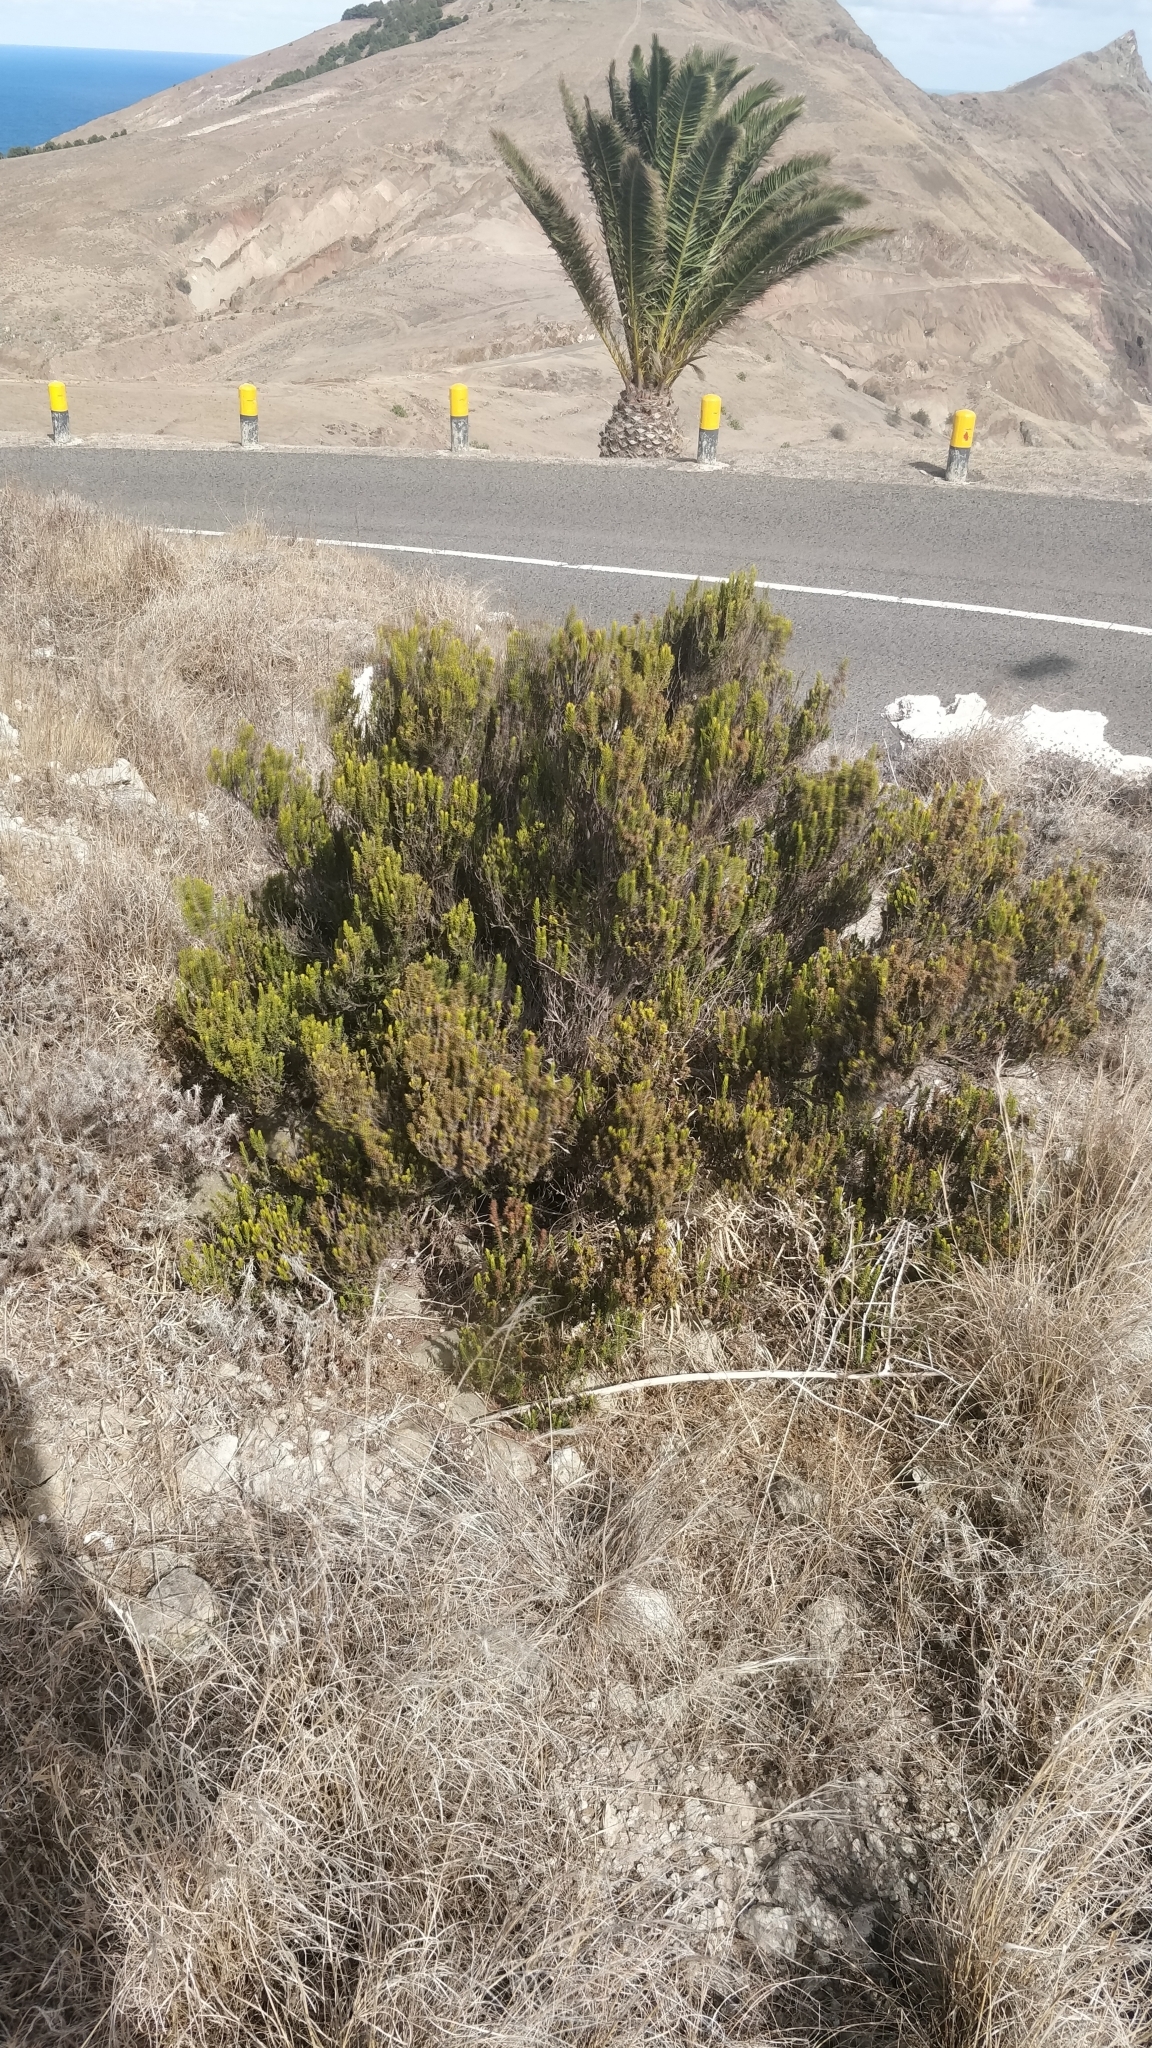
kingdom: Plantae
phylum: Tracheophyta
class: Magnoliopsida
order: Ericales
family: Ericaceae
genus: Erica
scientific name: Erica platycodon
